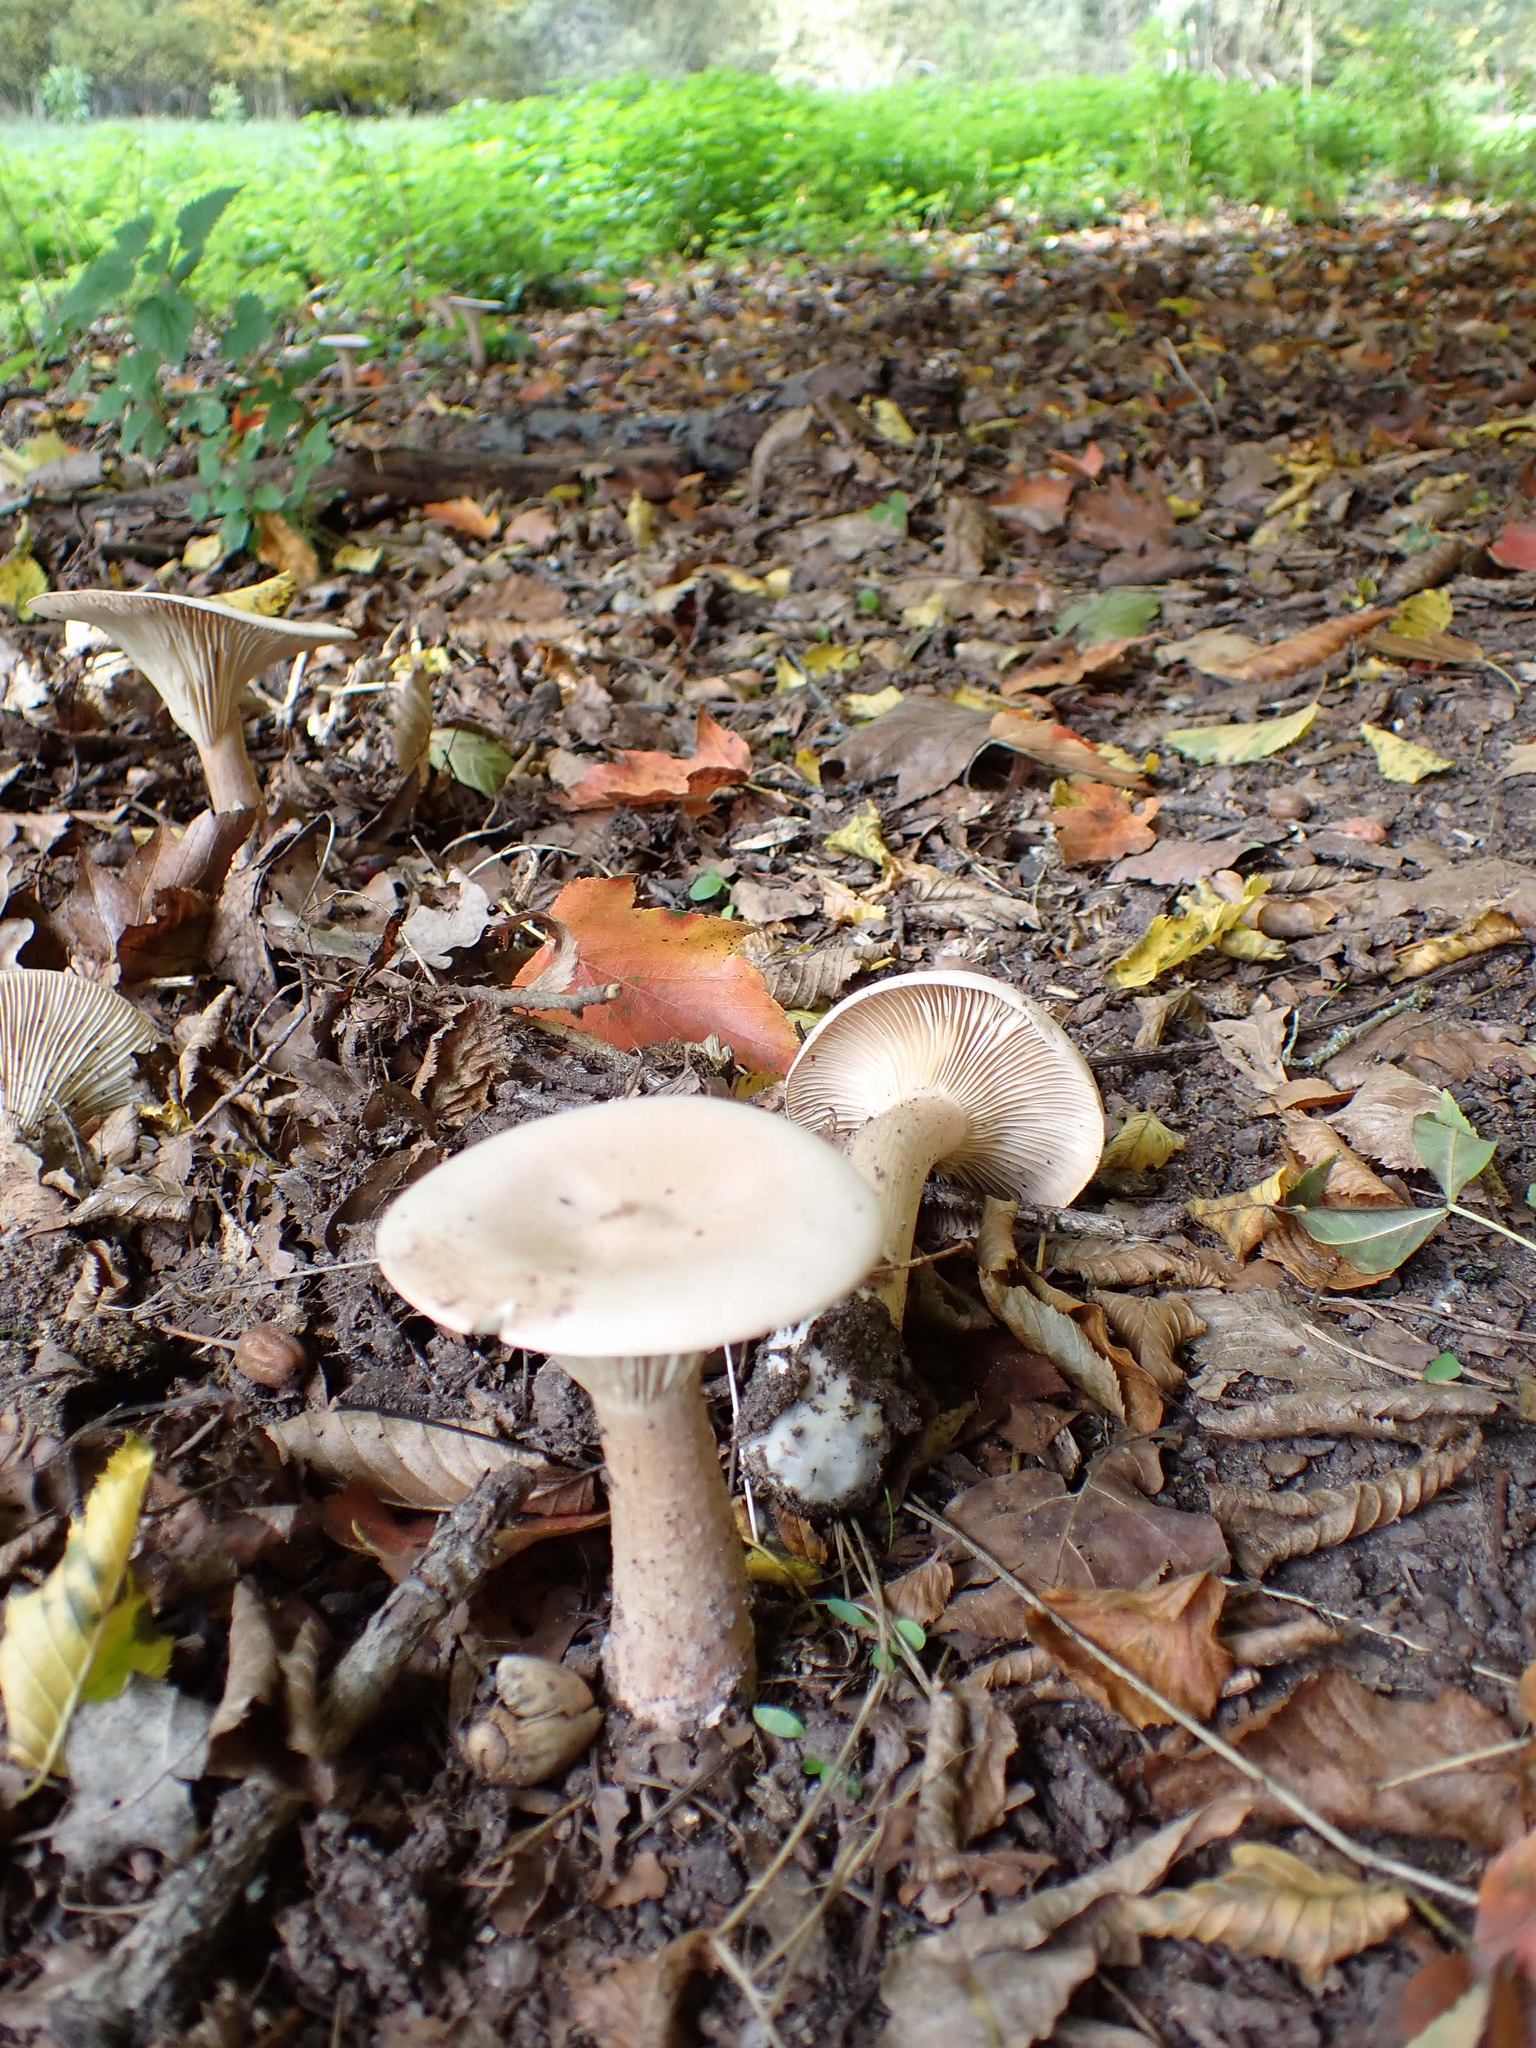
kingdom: Fungi
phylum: Basidiomycota
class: Agaricomycetes
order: Agaricales
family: Tricholomataceae
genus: Infundibulicybe
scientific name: Infundibulicybe geotropa
